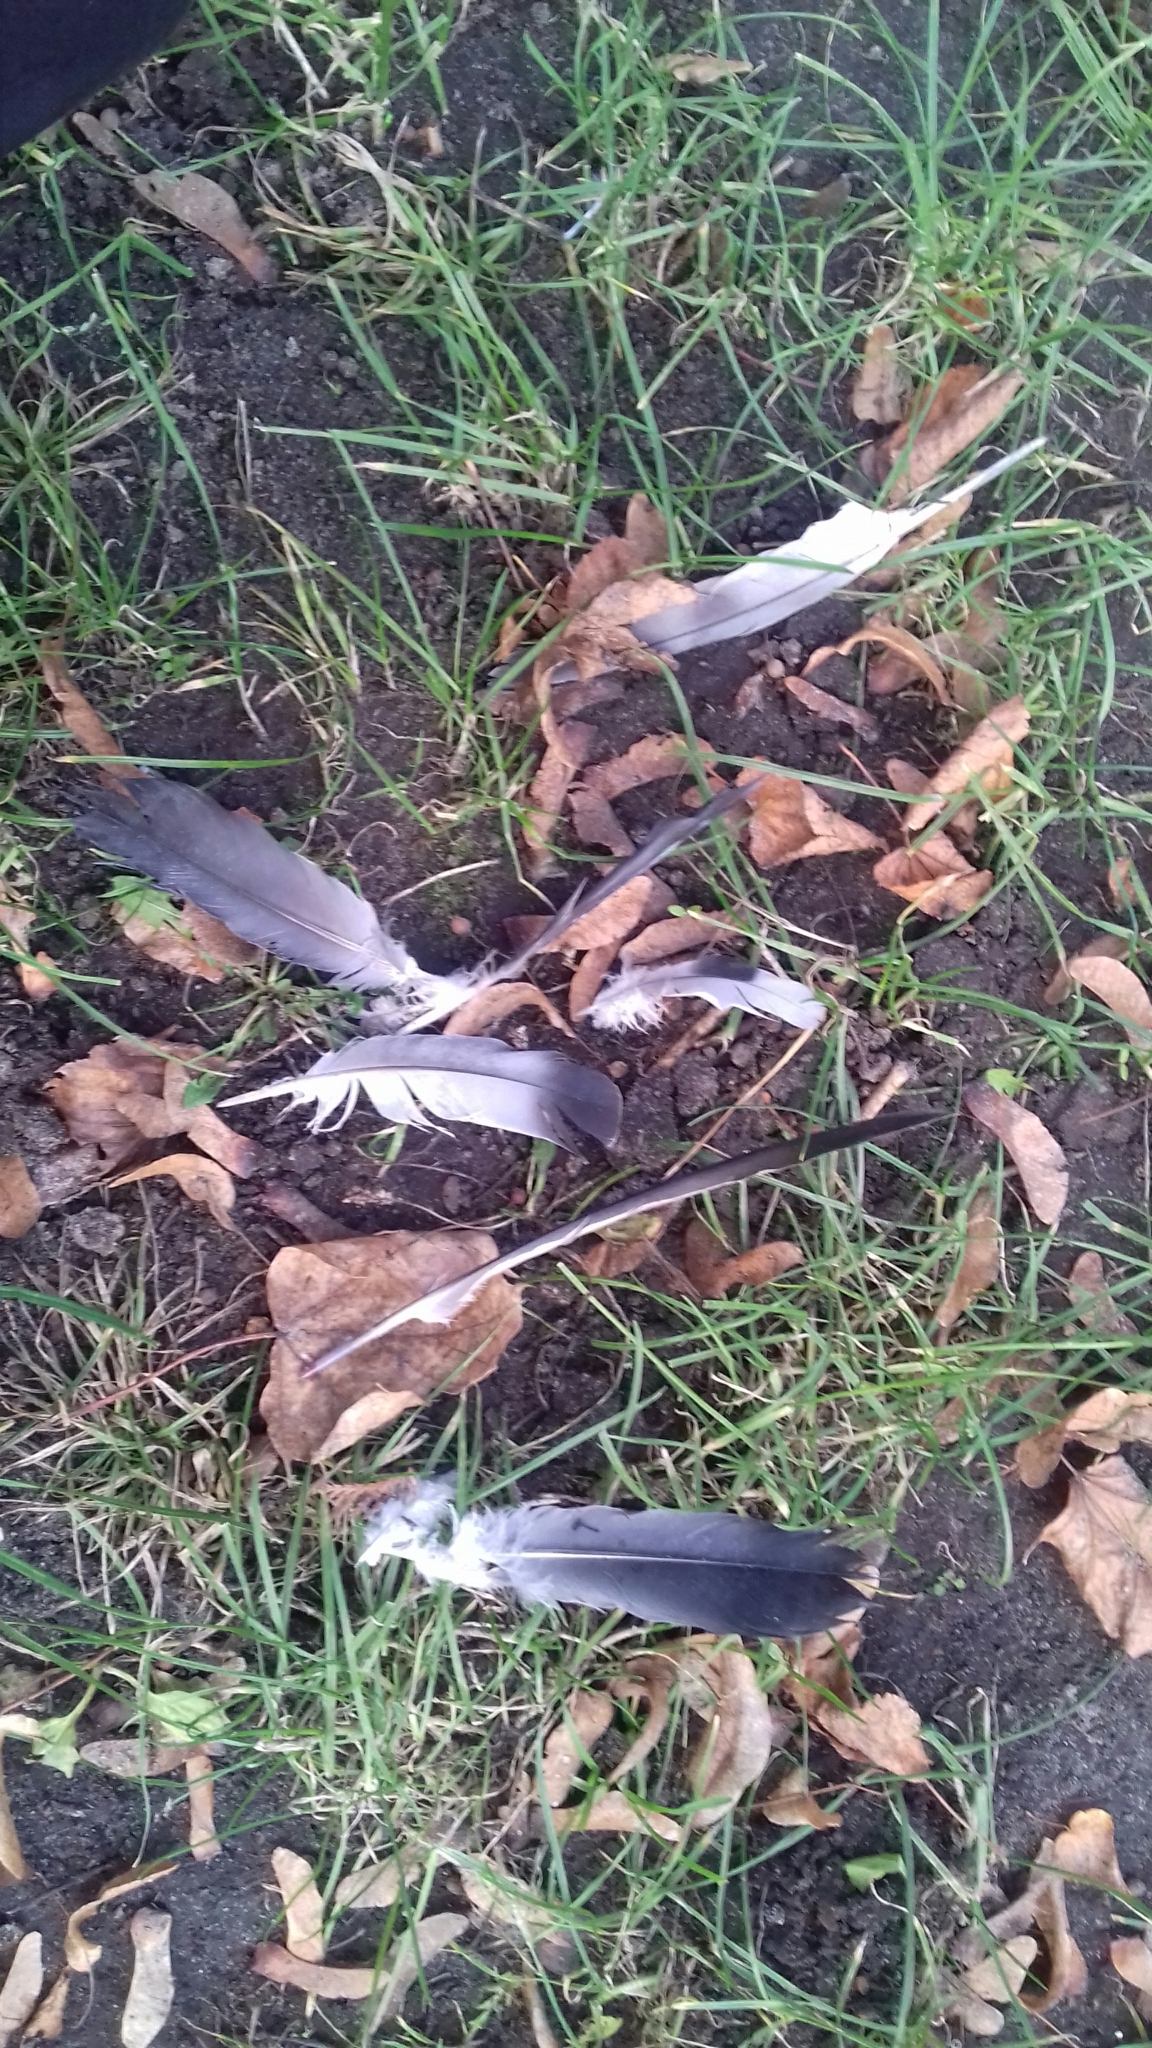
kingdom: Animalia
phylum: Chordata
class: Aves
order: Columbiformes
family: Columbidae
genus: Columba
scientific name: Columba livia
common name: Rock pigeon
